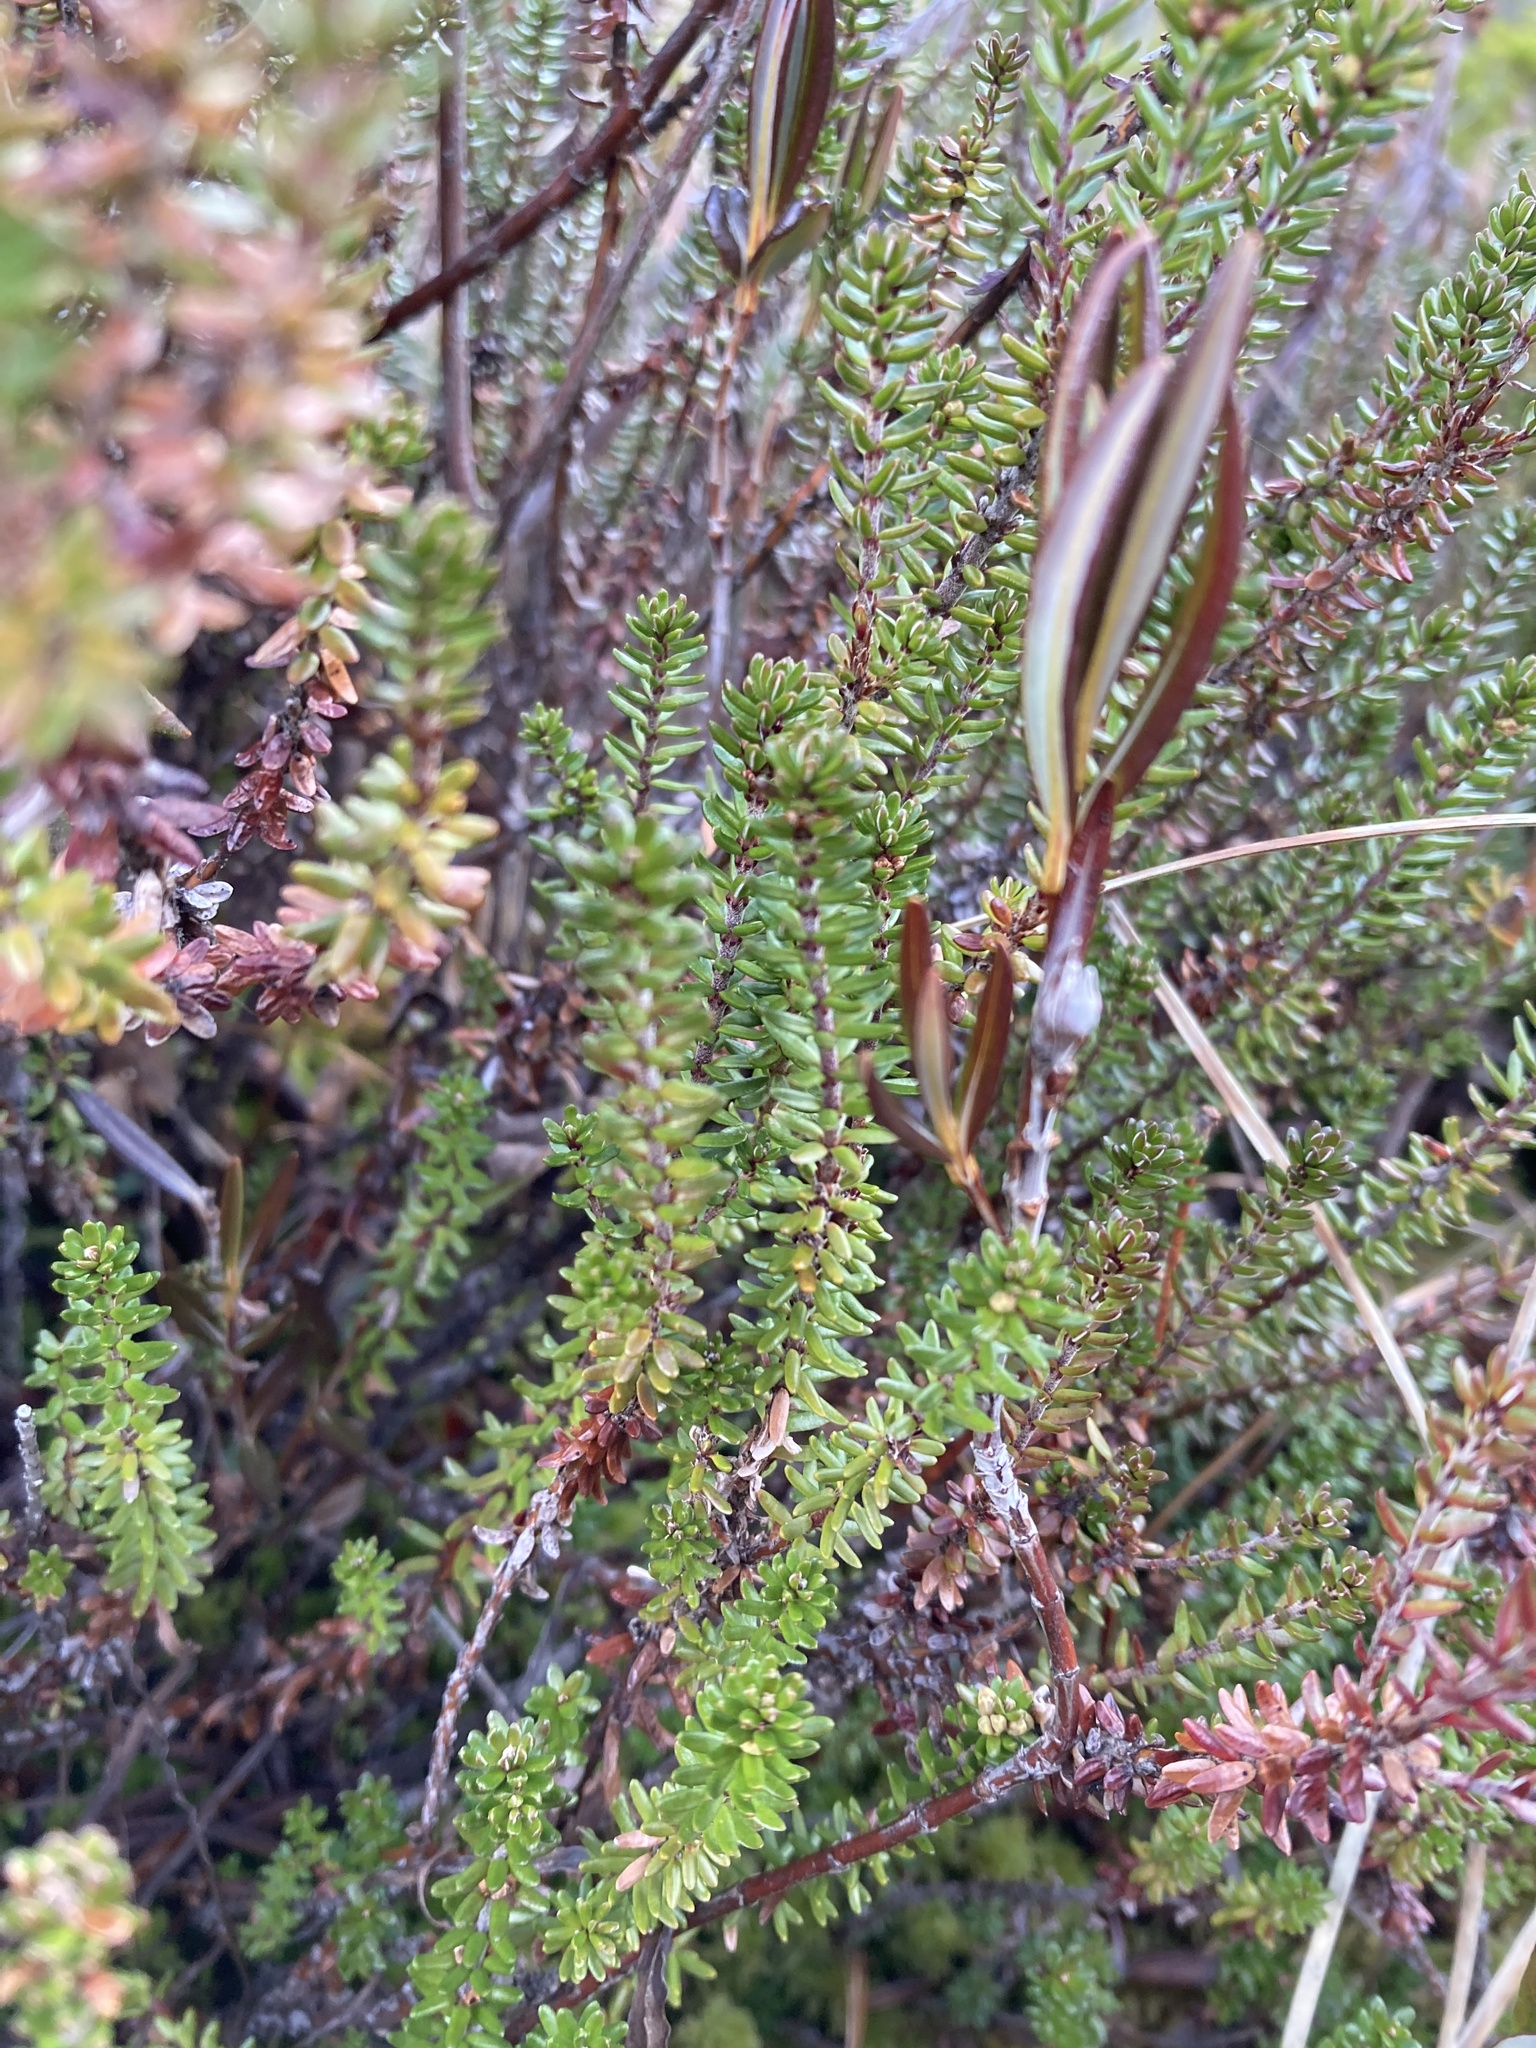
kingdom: Plantae
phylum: Tracheophyta
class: Magnoliopsida
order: Ericales
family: Ericaceae
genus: Empetrum
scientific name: Empetrum nigrum
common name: Black crowberry
